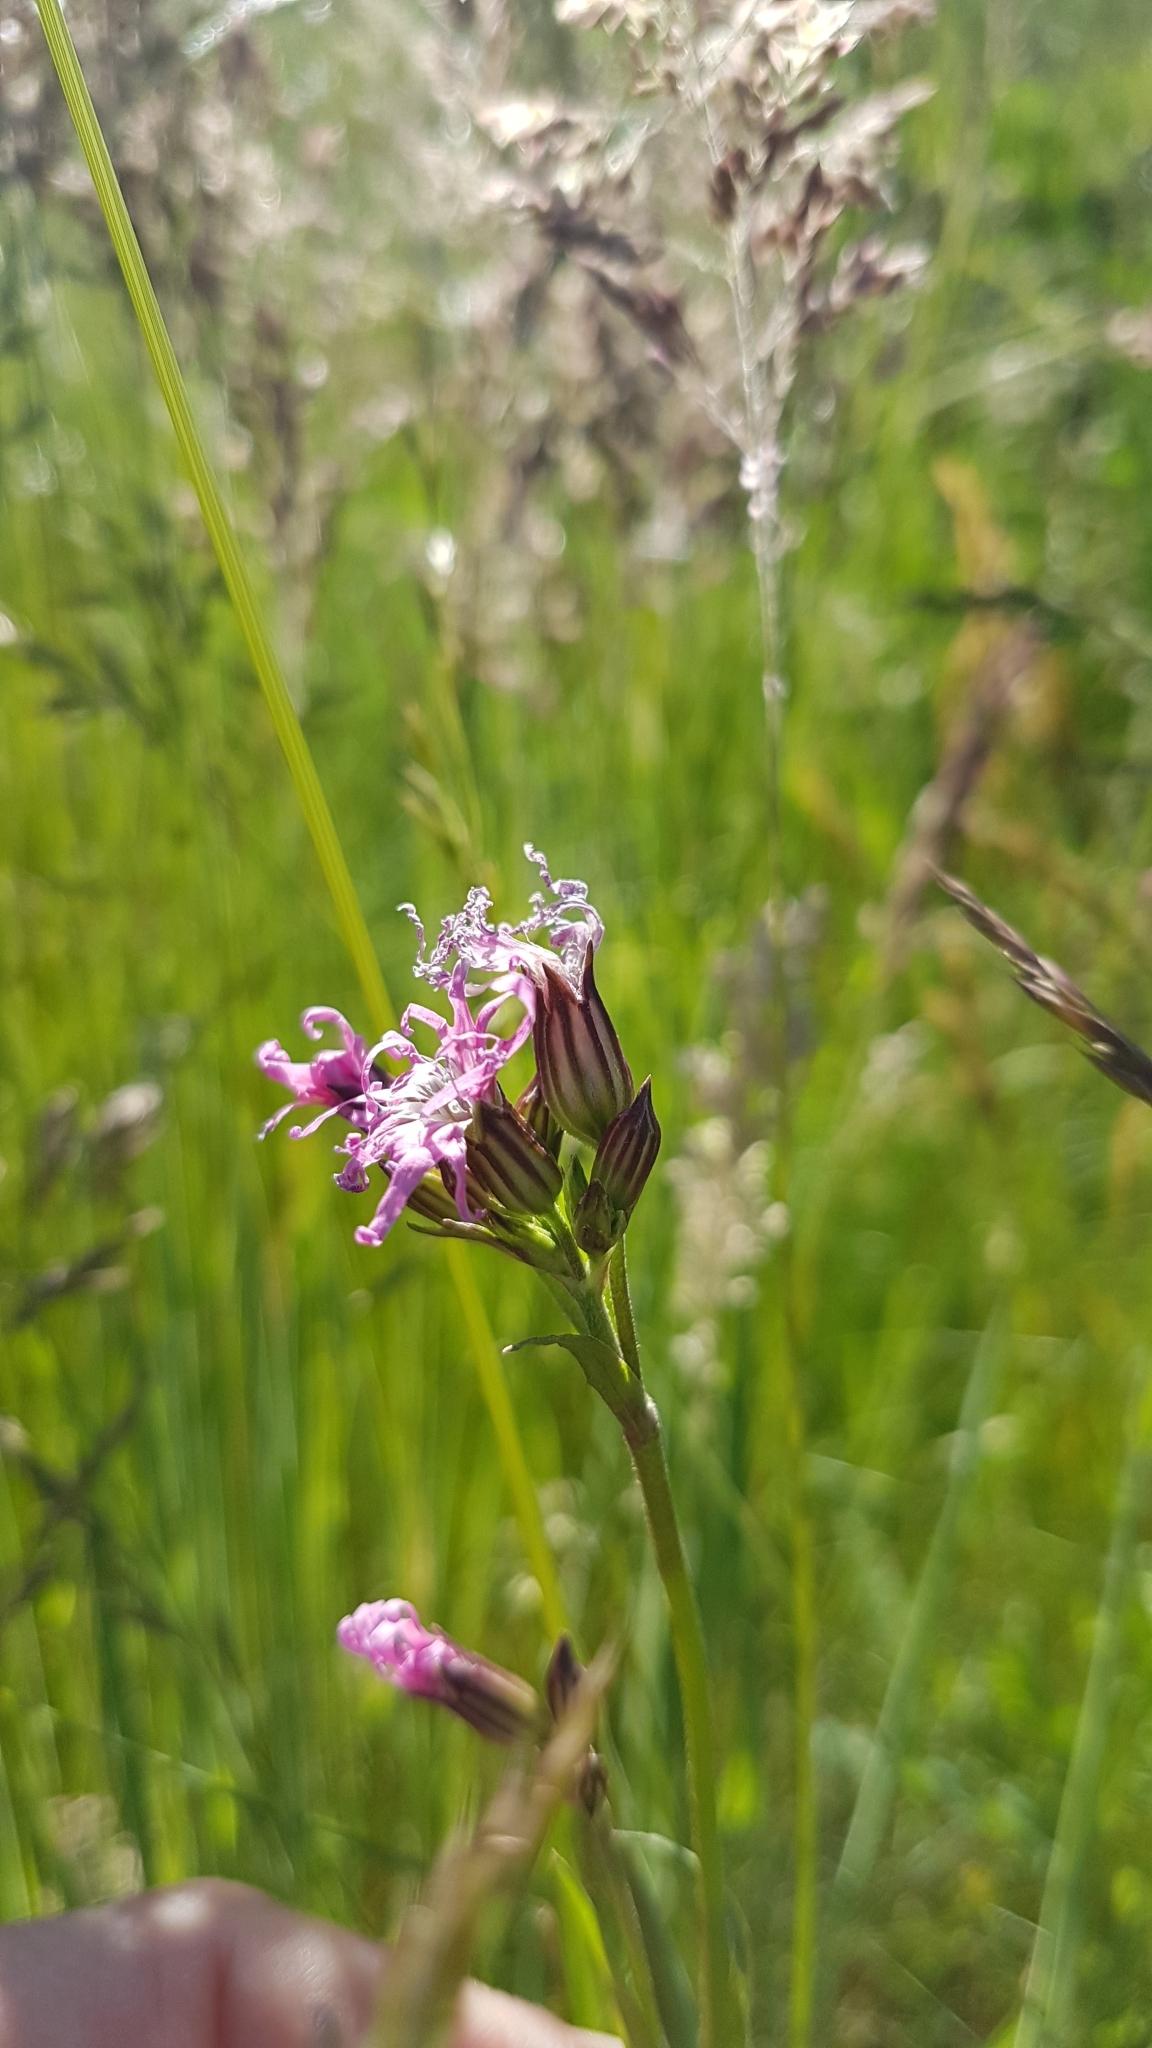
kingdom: Plantae
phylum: Tracheophyta
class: Magnoliopsida
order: Caryophyllales
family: Caryophyllaceae
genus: Silene
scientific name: Silene flos-cuculi
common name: Ragged-robin
